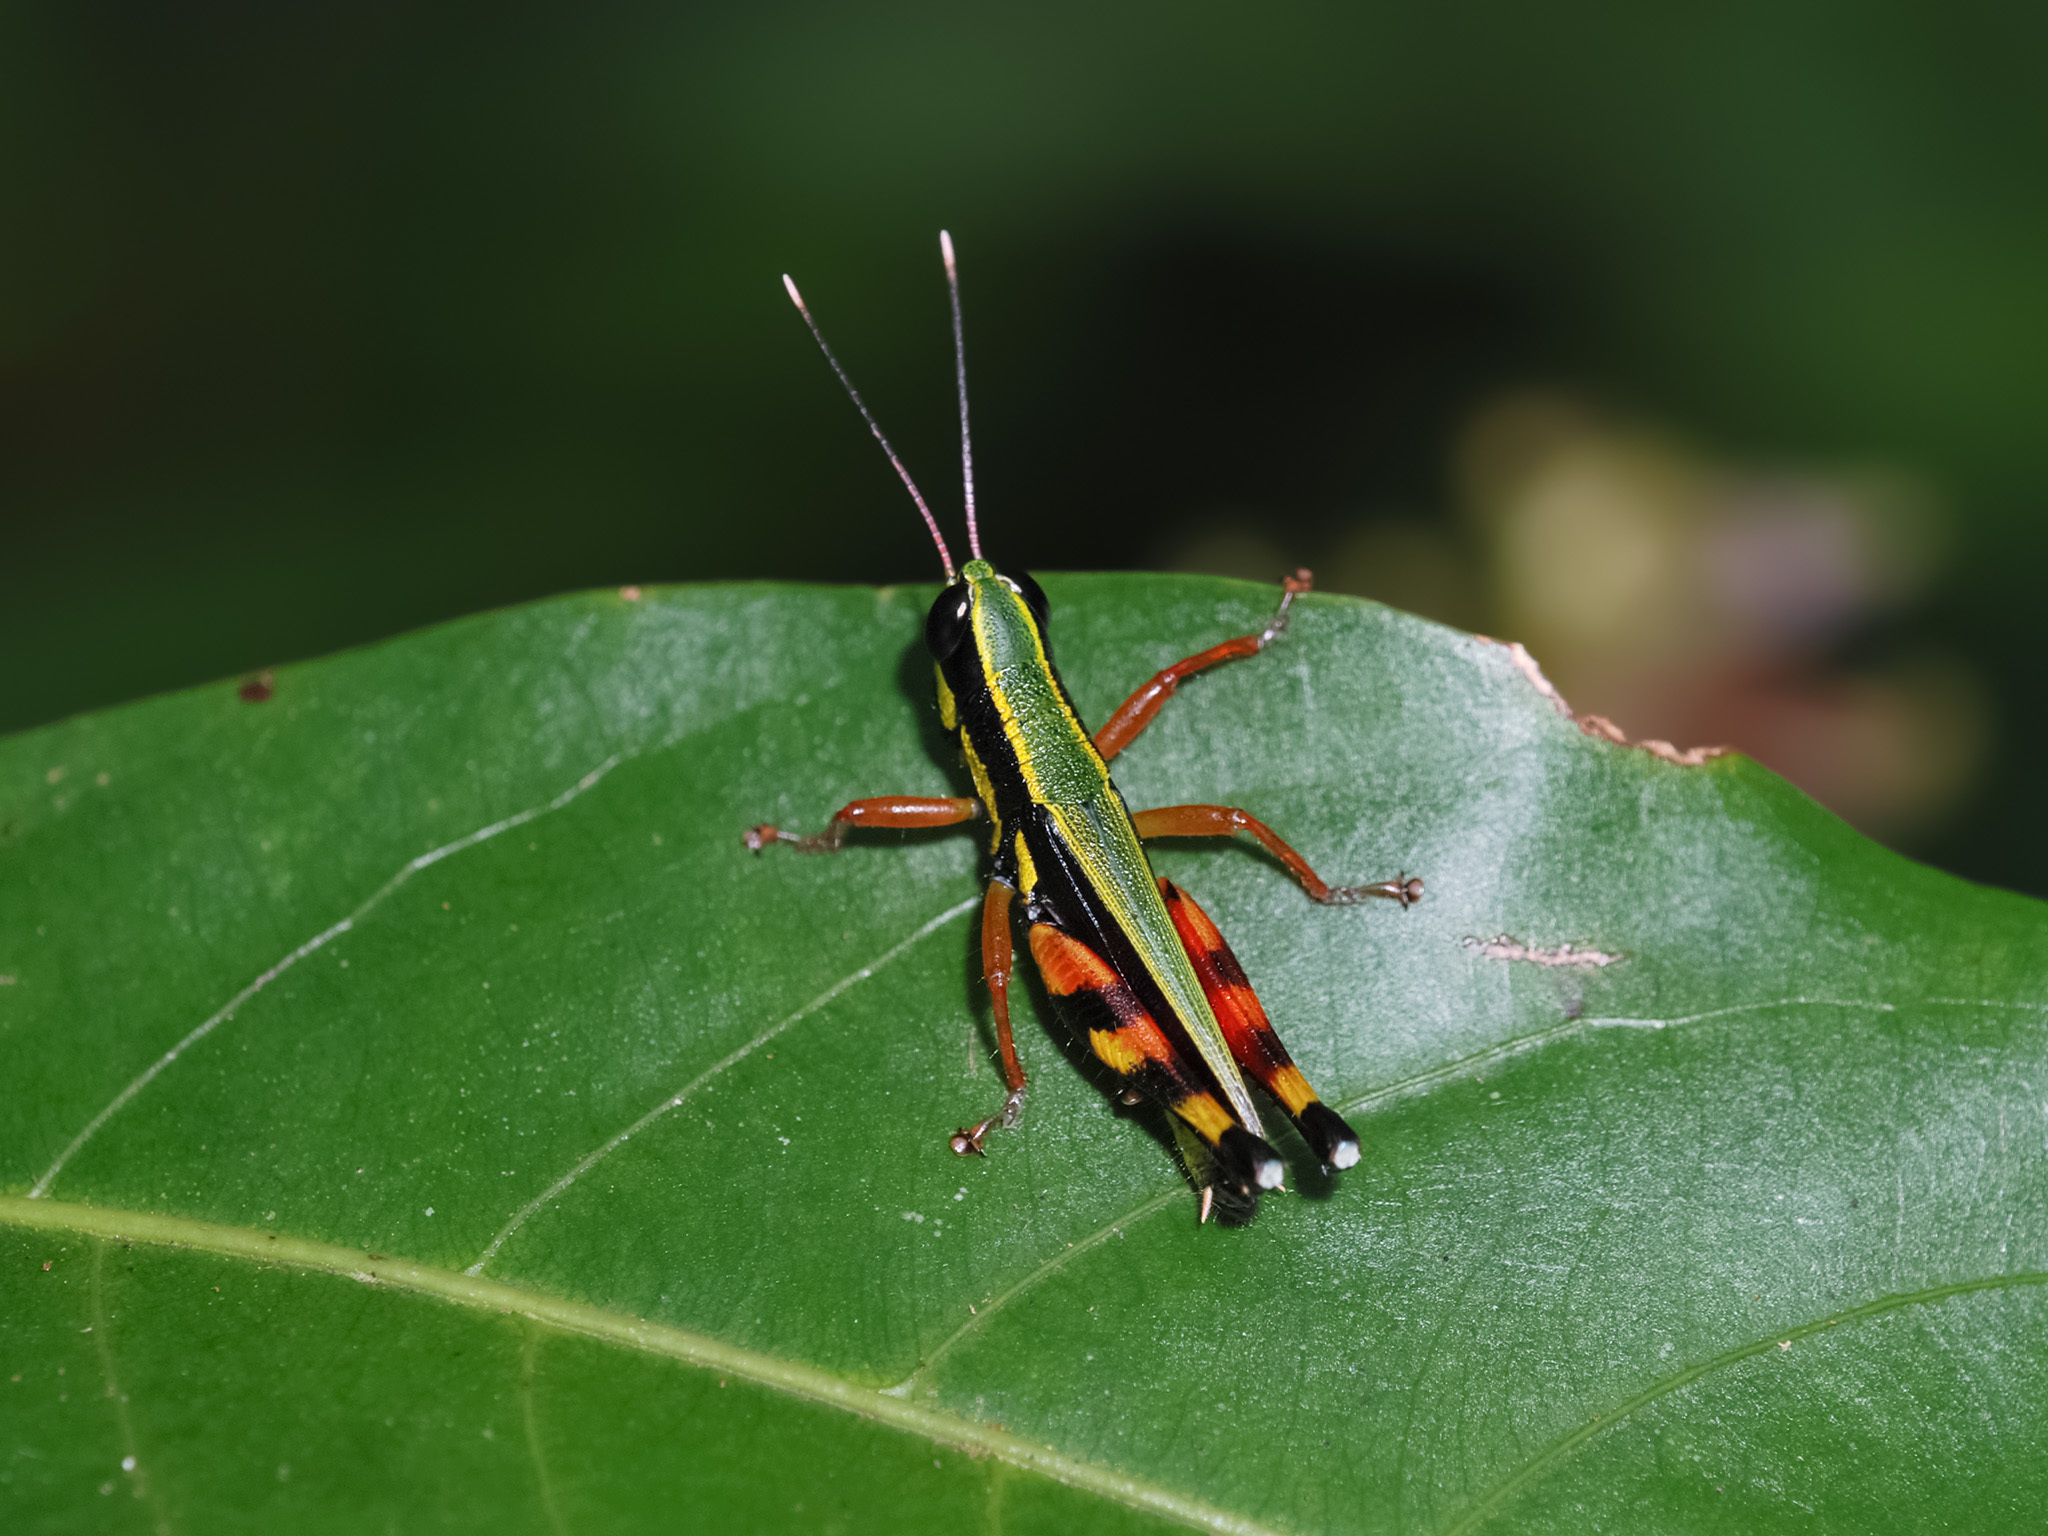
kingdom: Animalia
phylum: Arthropoda
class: Insecta
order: Orthoptera
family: Acrididae
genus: Tauchira
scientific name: Tauchira polychroa
